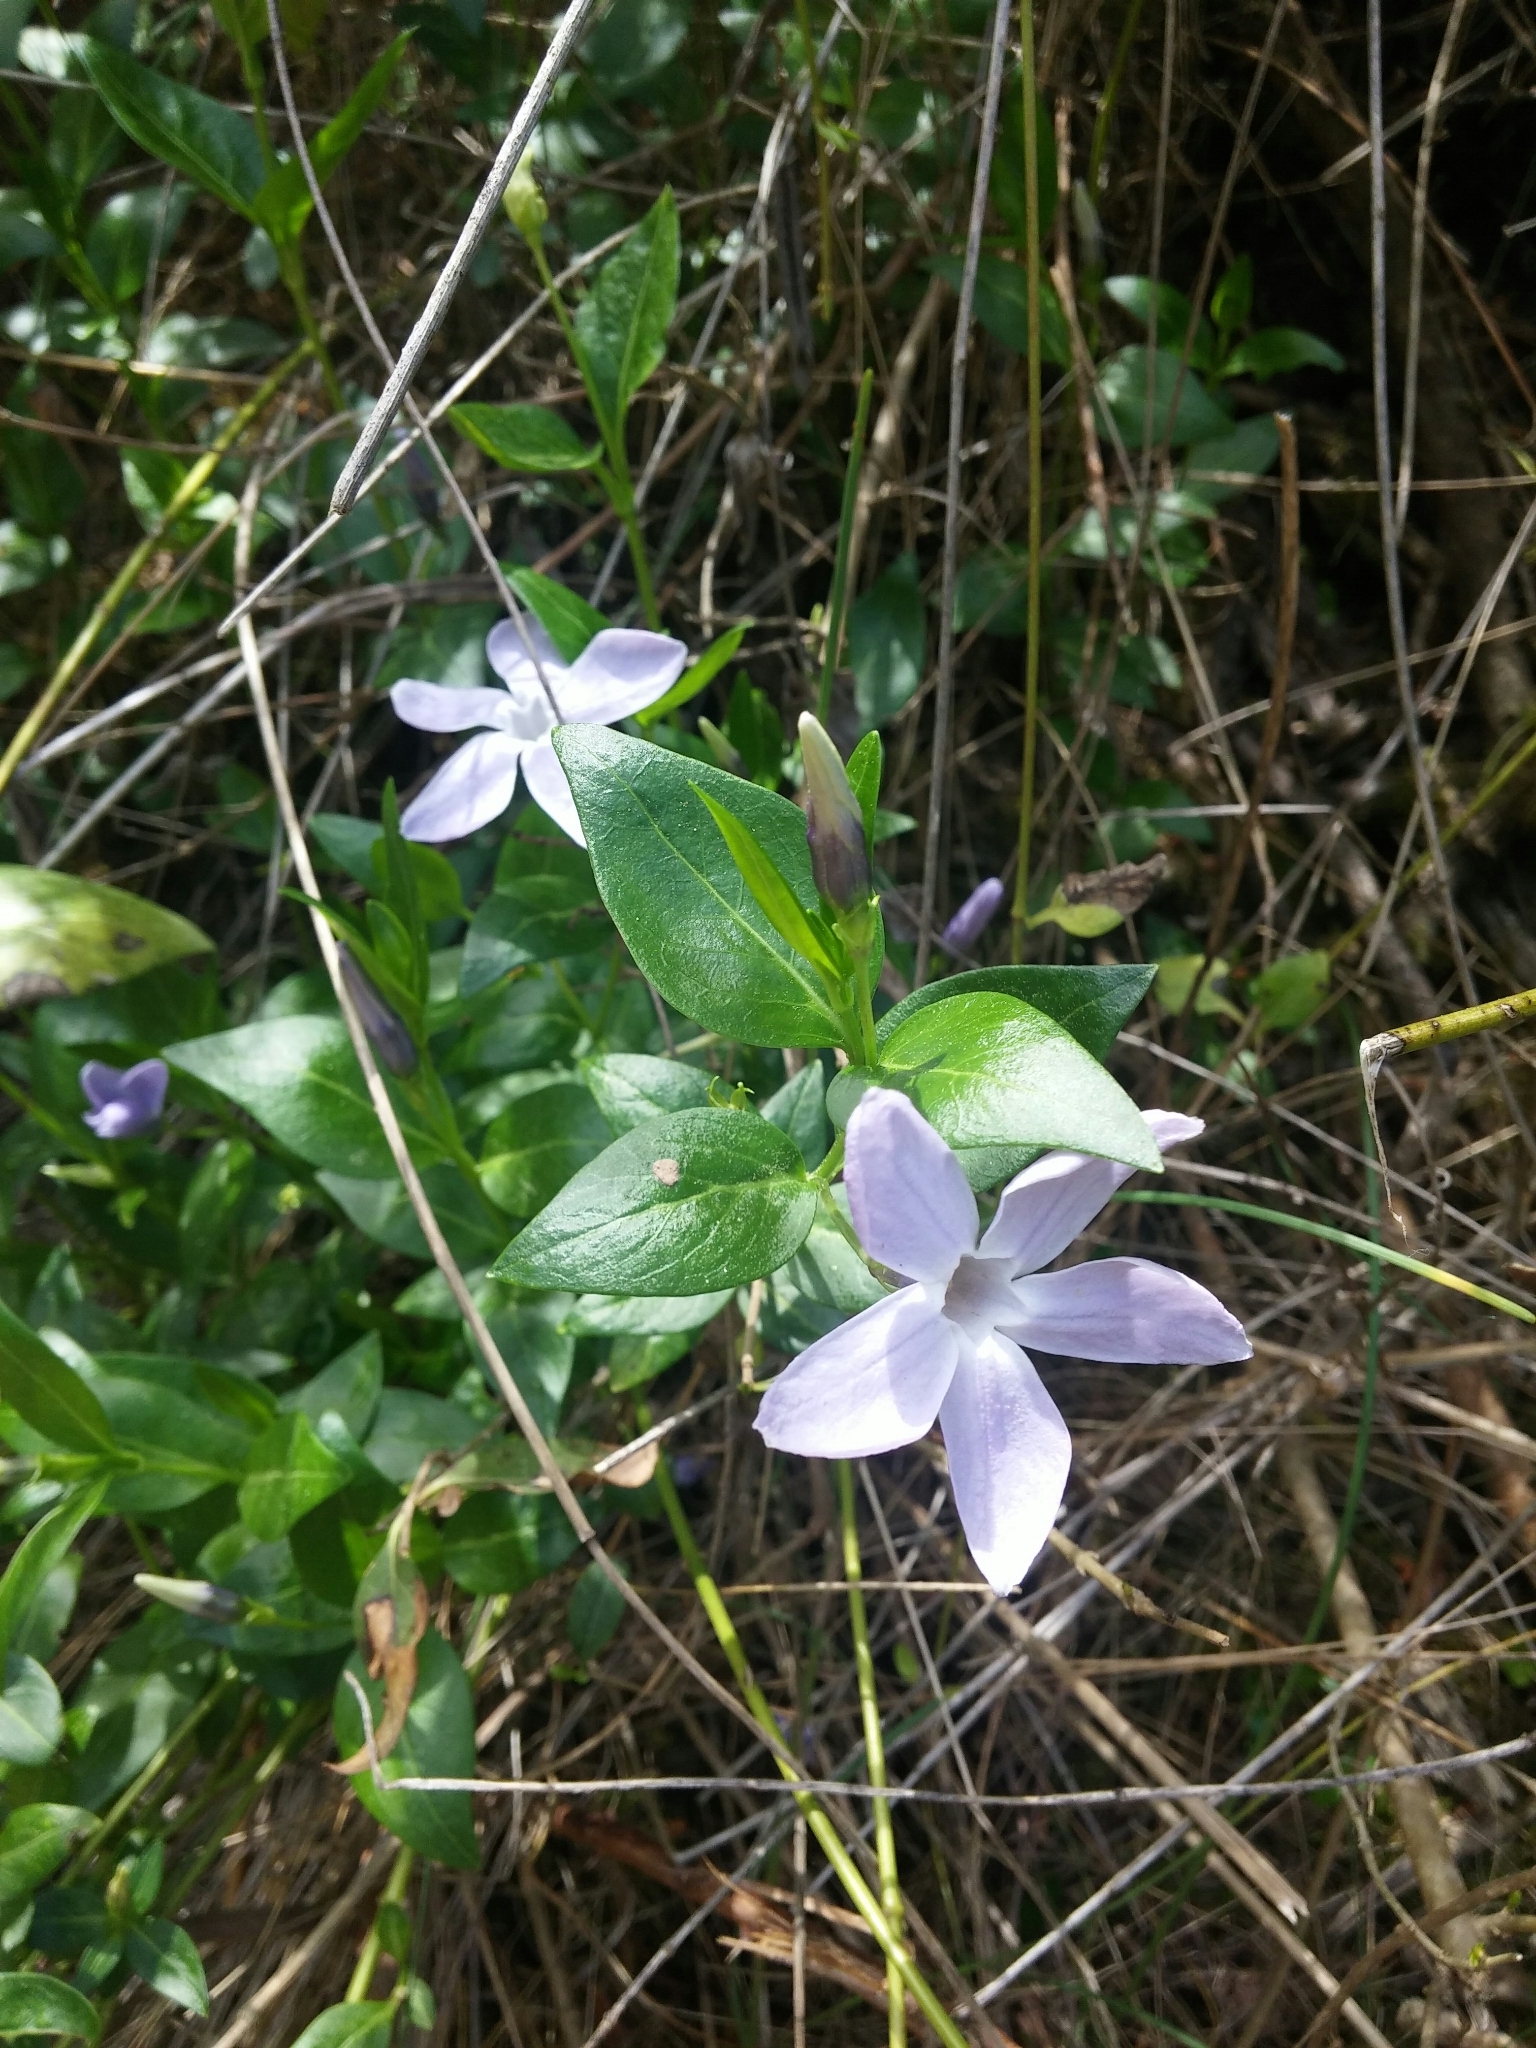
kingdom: Plantae
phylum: Tracheophyta
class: Magnoliopsida
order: Gentianales
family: Apocynaceae
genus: Vinca
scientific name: Vinca difformis
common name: Intermediate periwinkle
